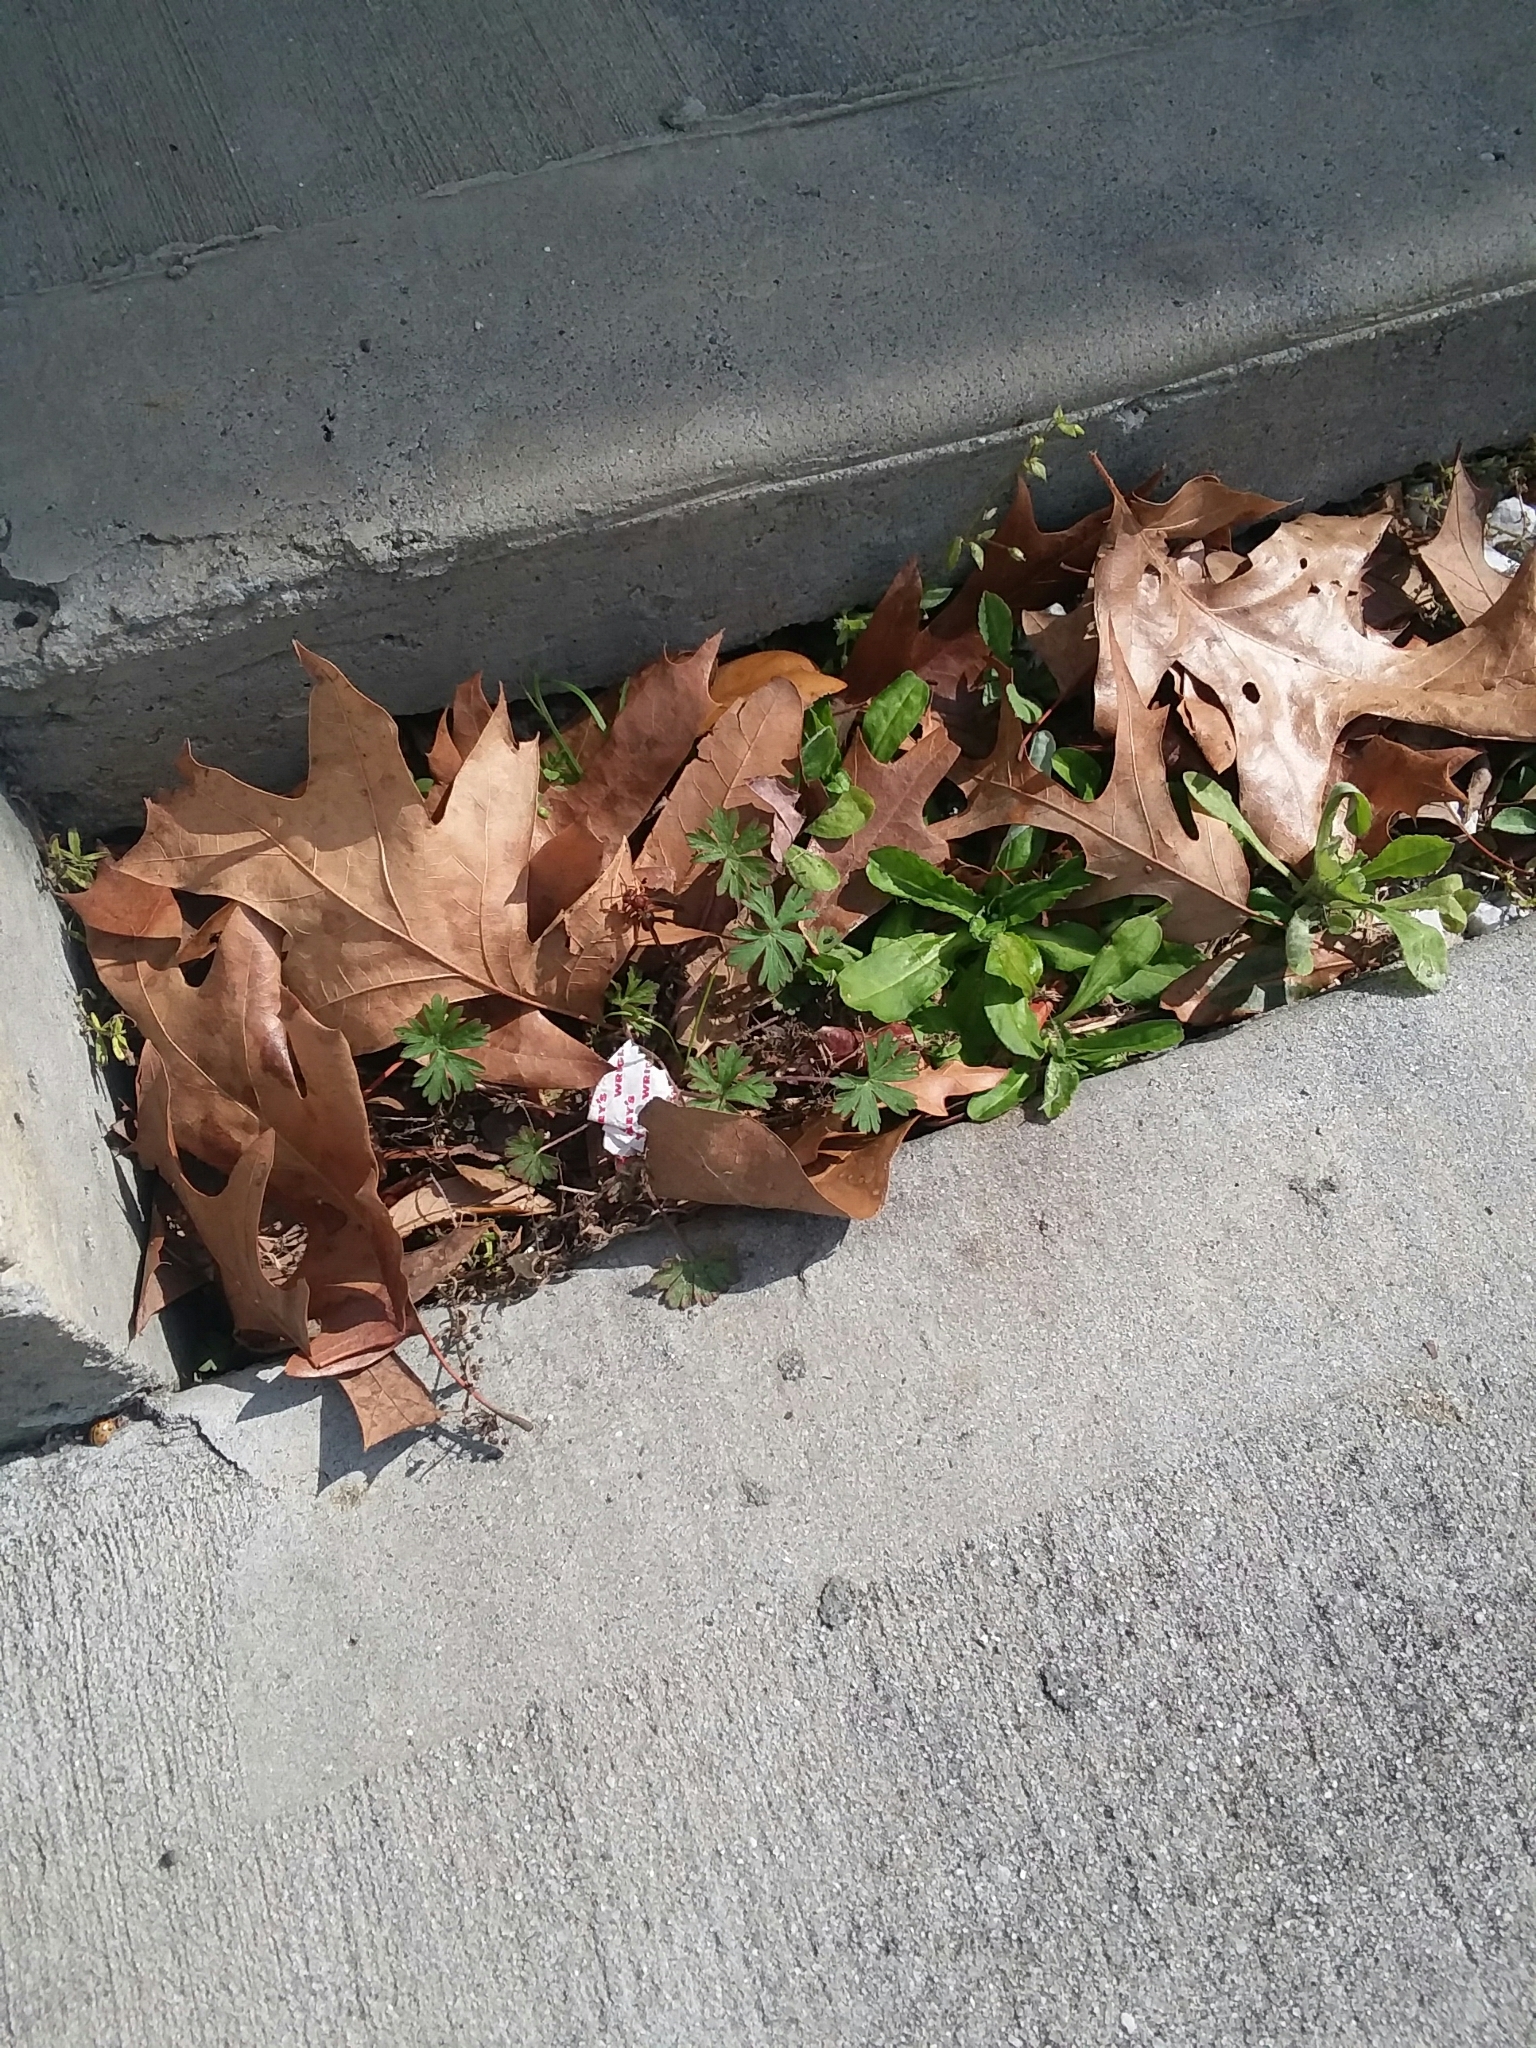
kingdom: Animalia
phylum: Arthropoda
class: Insecta
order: Hymenoptera
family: Eumenidae
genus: Polistes
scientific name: Polistes metricus
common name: Metric paper wasp
